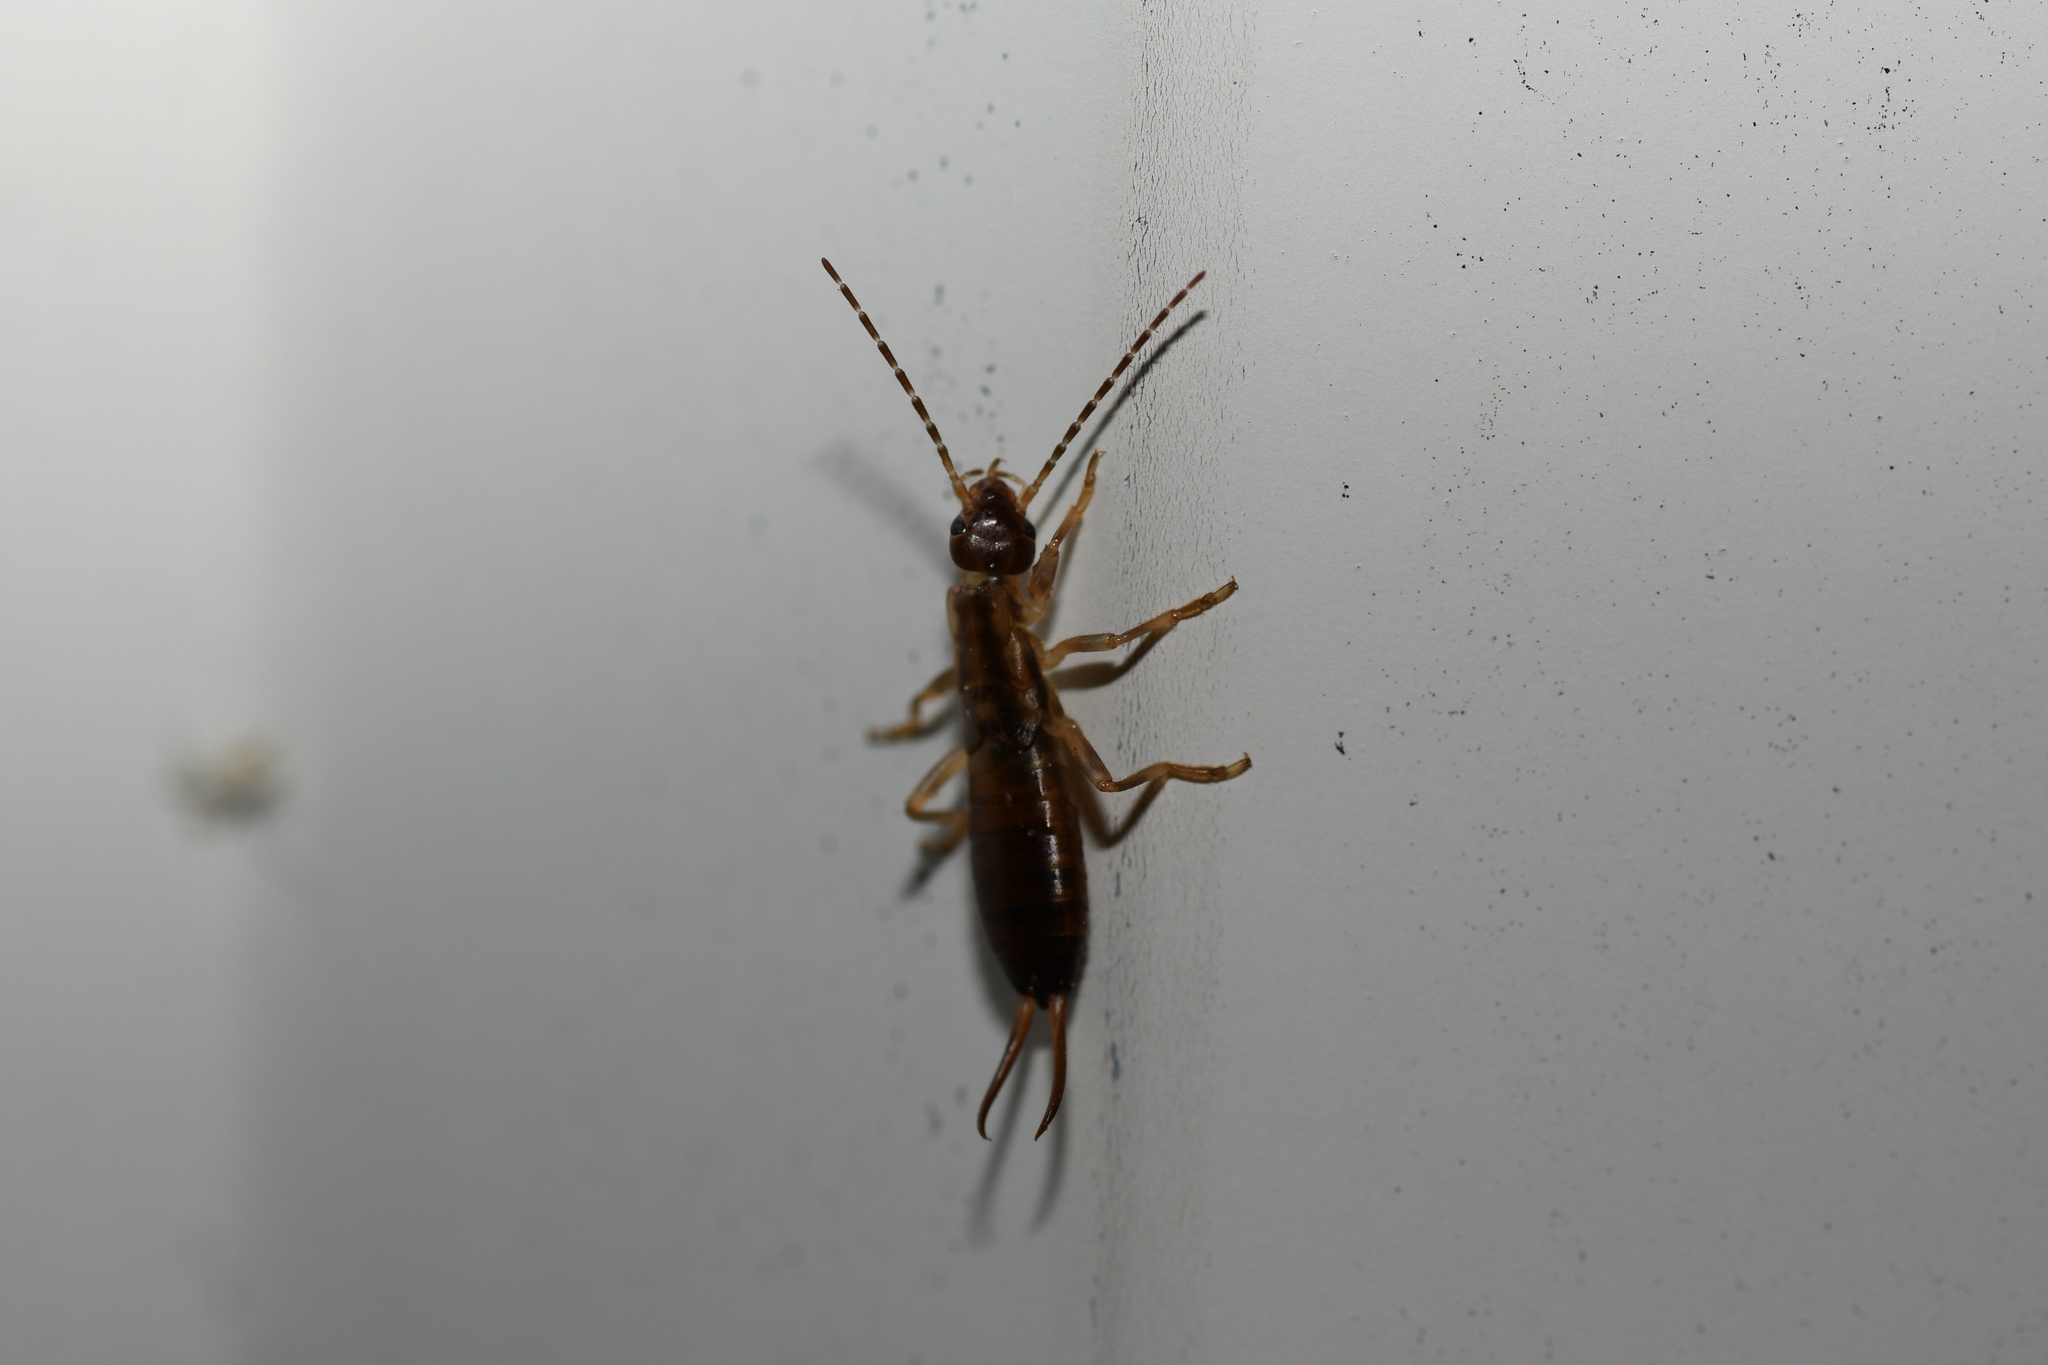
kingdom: Animalia
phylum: Arthropoda
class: Insecta
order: Dermaptera
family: Forficulidae
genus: Forficula
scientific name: Forficula
